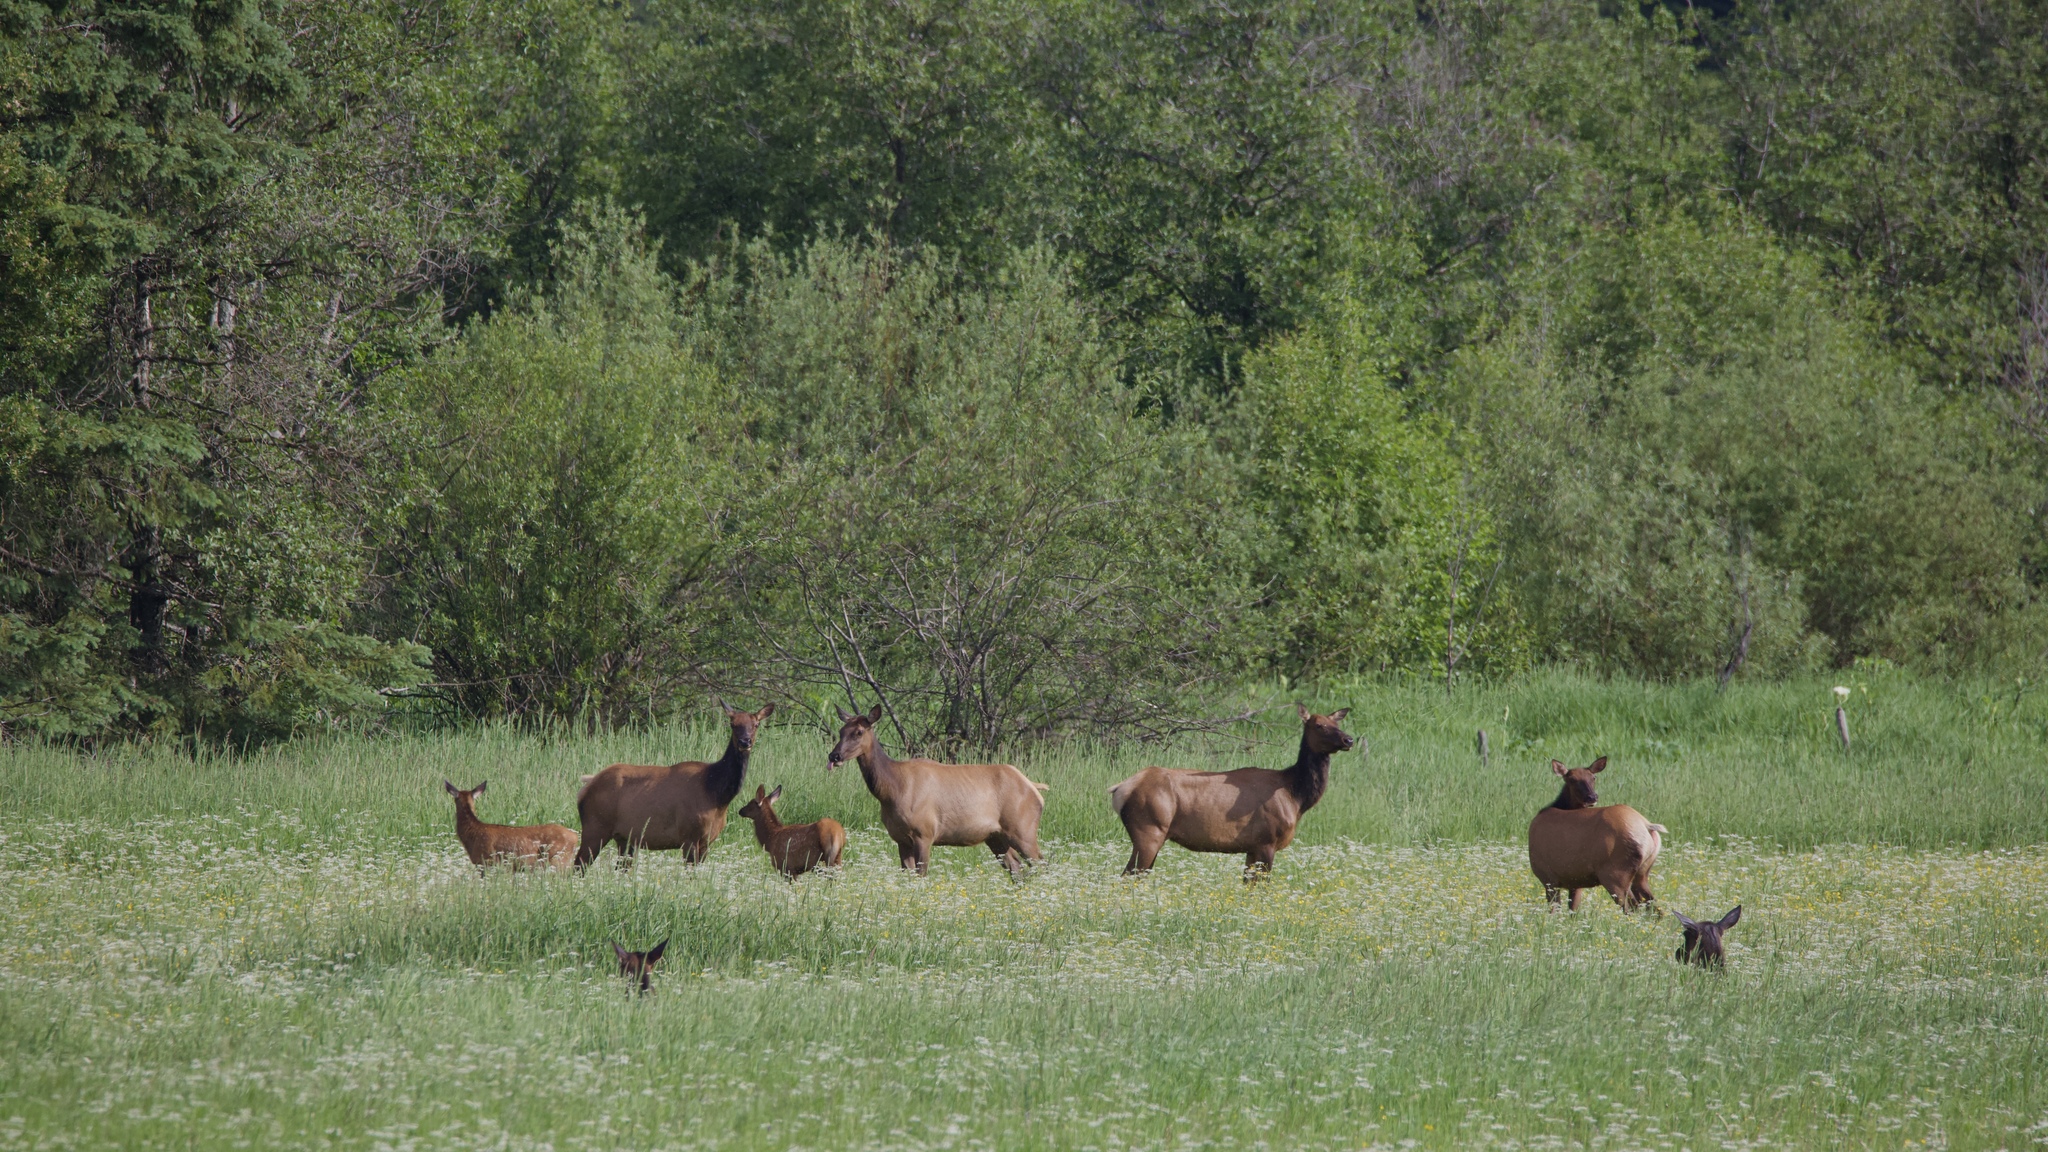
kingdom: Animalia
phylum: Chordata
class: Mammalia
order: Artiodactyla
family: Cervidae
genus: Cervus
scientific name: Cervus elaphus
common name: Red deer
